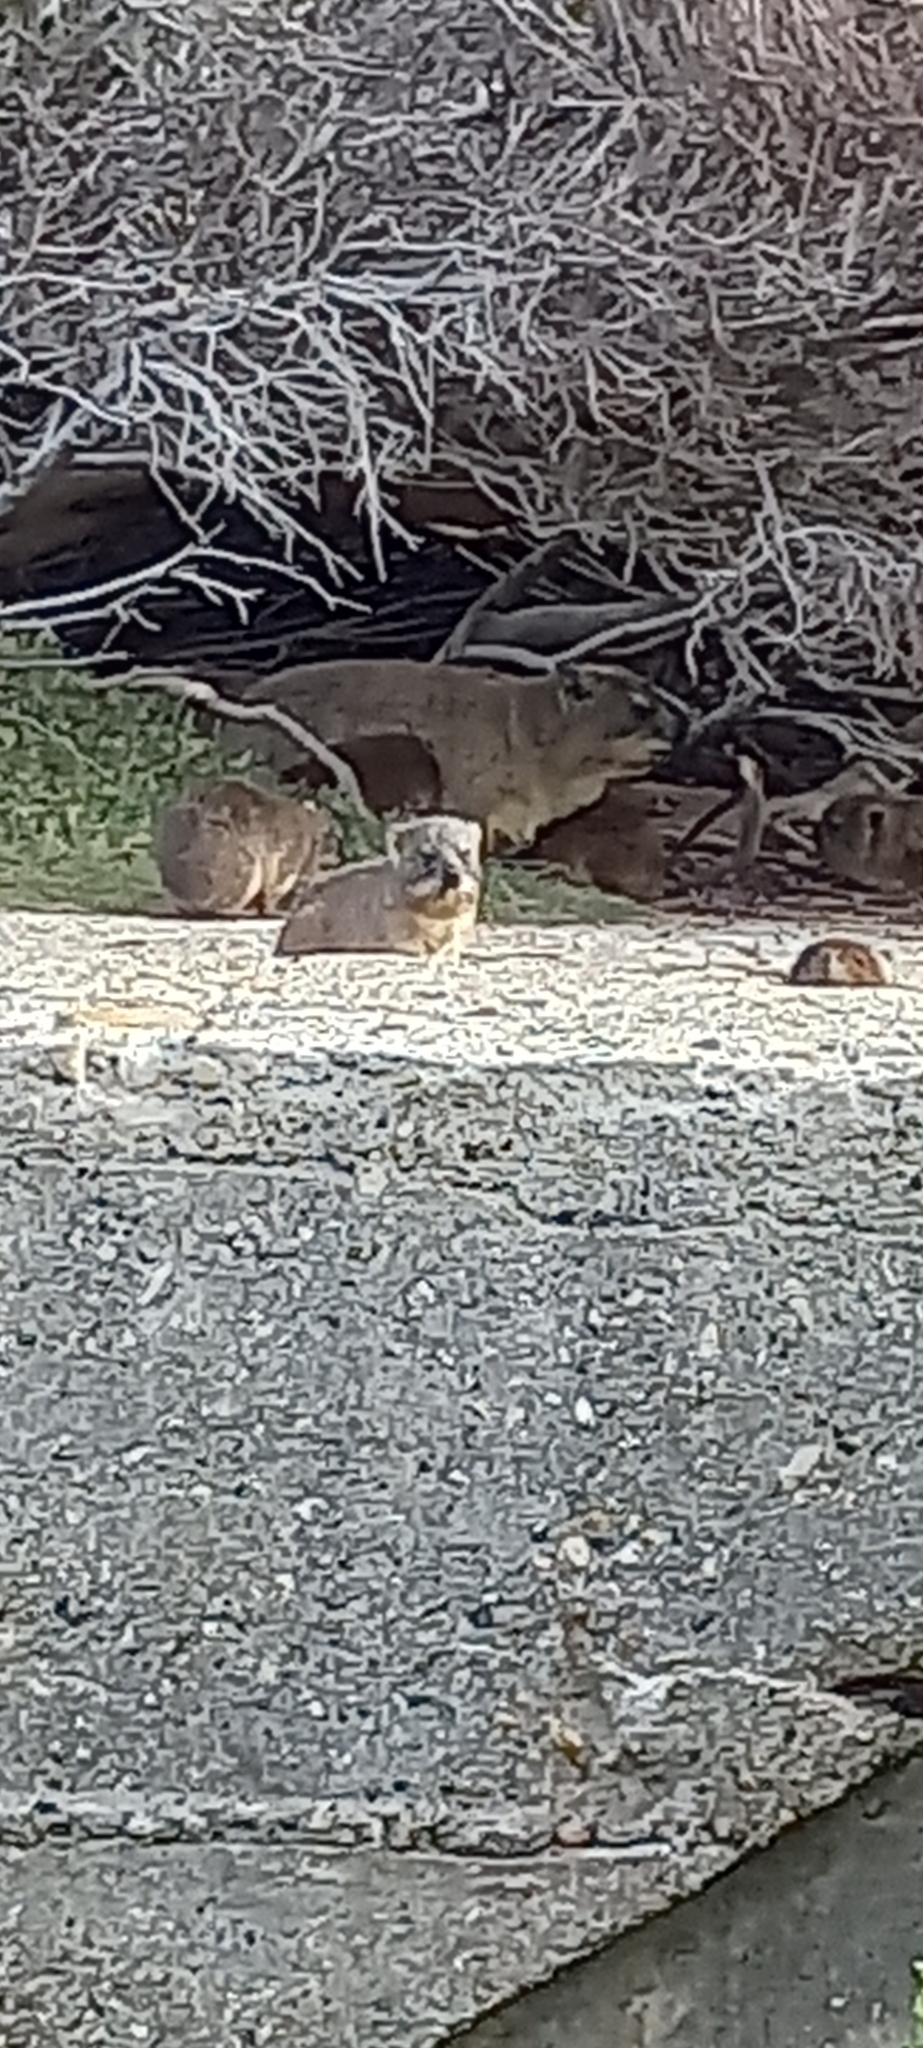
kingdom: Animalia
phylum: Chordata
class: Mammalia
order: Hyracoidea
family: Procaviidae
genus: Procavia
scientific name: Procavia capensis
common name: Rock hyrax
